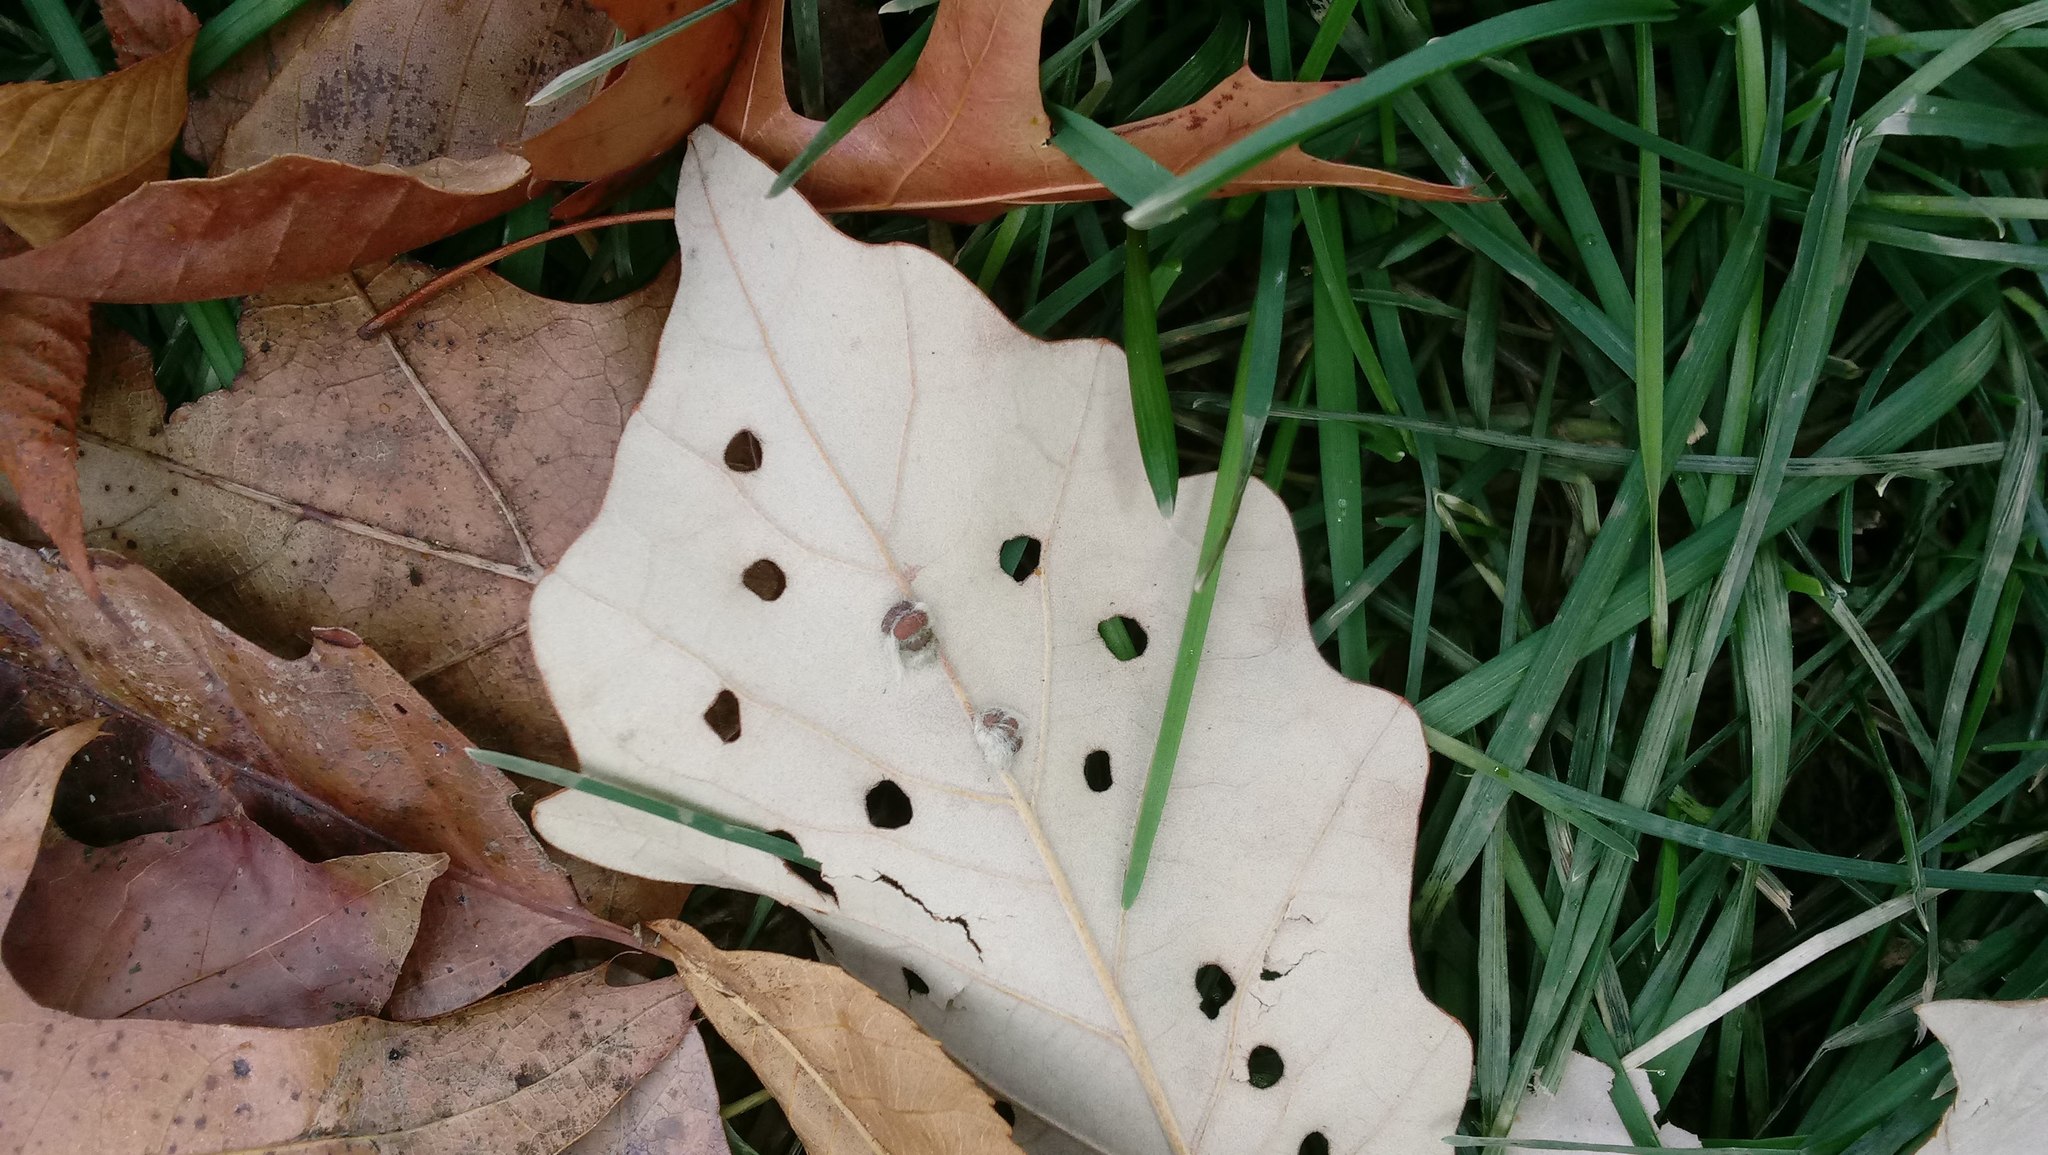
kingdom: Animalia
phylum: Arthropoda
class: Insecta
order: Hymenoptera
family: Cynipidae
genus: Andricus
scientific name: Andricus Druon ignotum
